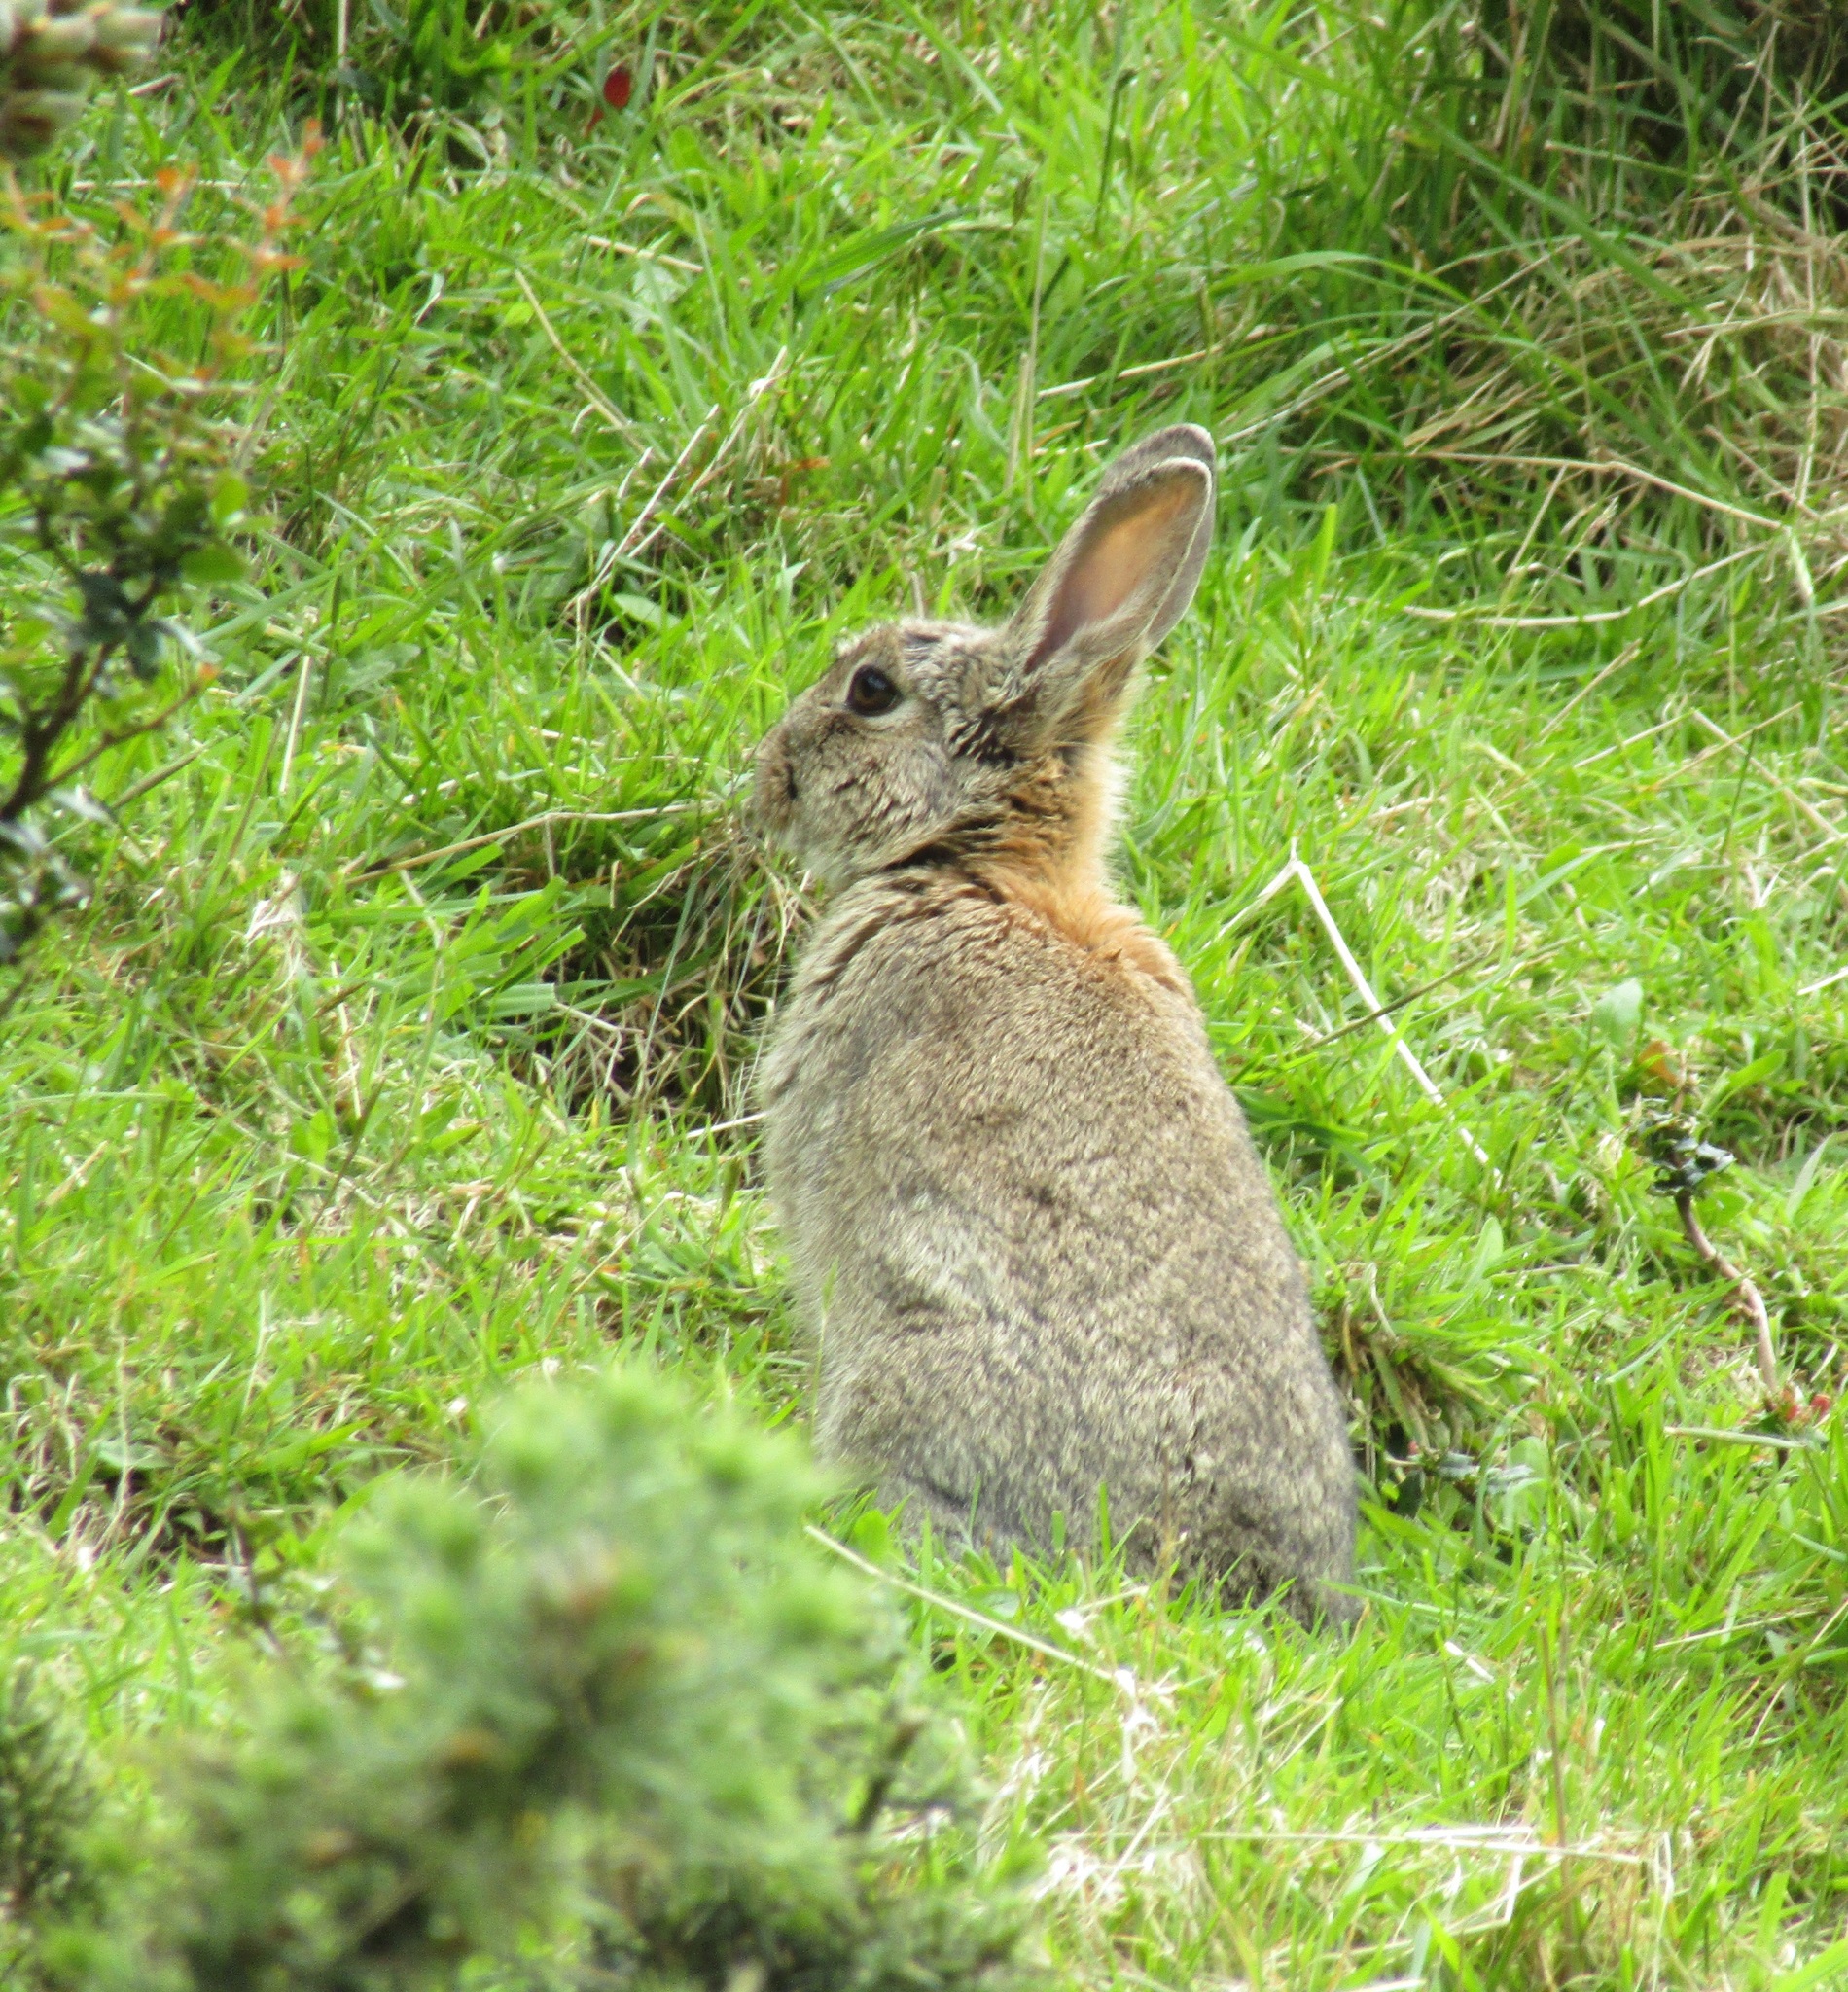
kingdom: Animalia
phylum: Chordata
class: Mammalia
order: Lagomorpha
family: Leporidae
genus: Oryctolagus
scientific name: Oryctolagus cuniculus
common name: European rabbit
